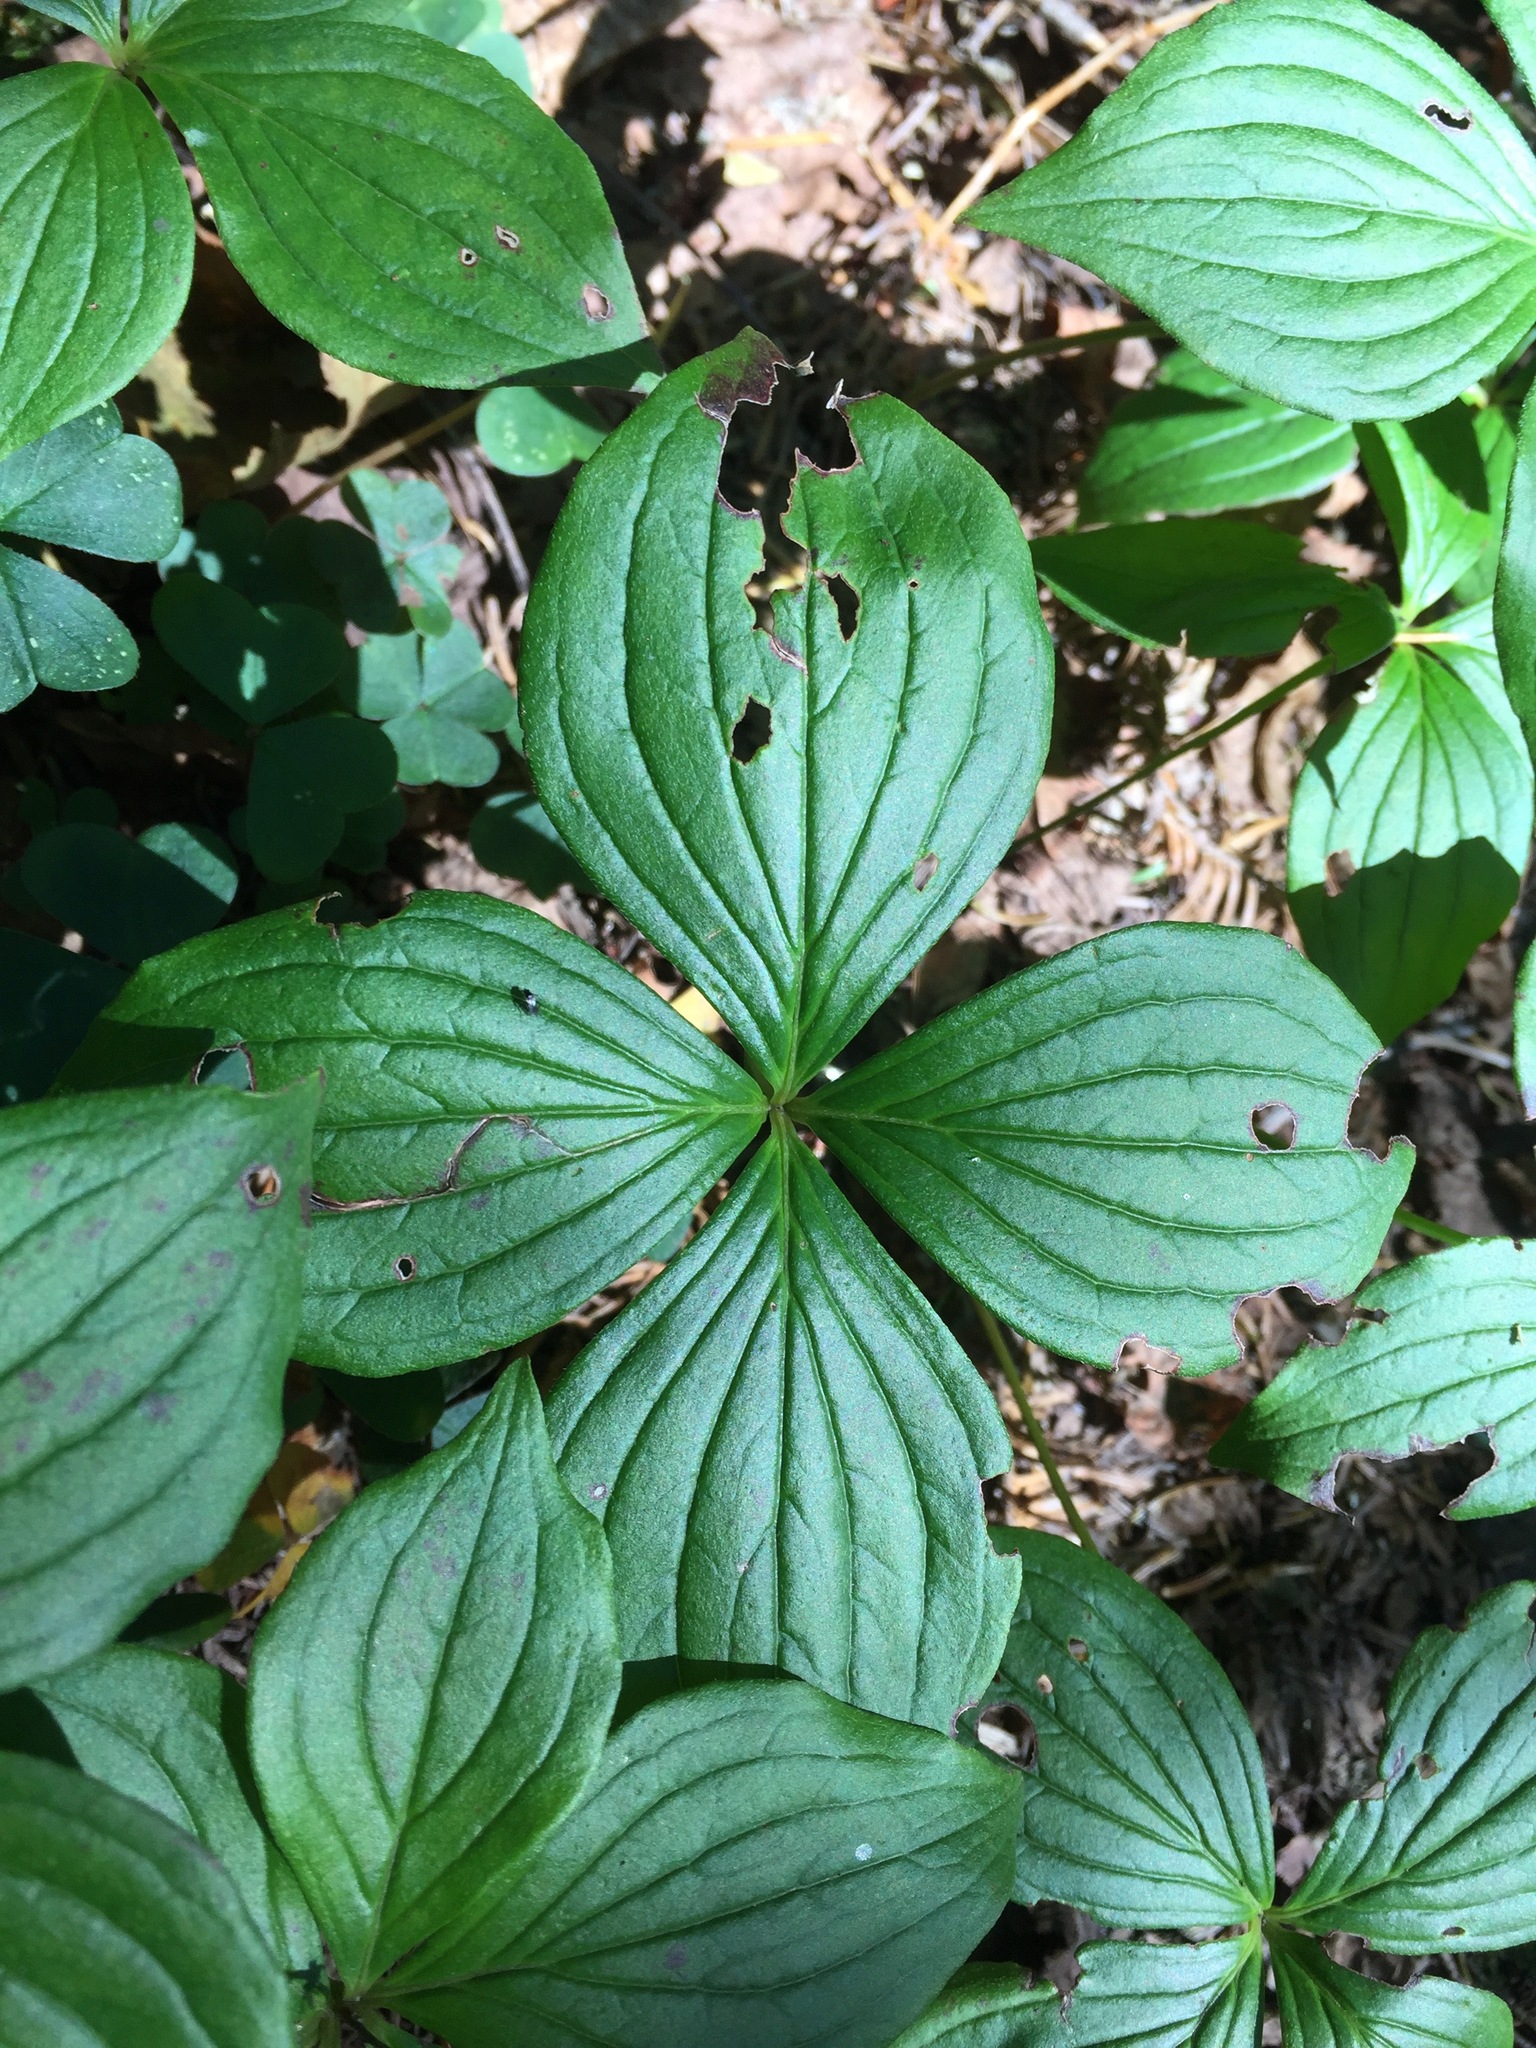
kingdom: Plantae
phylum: Tracheophyta
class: Magnoliopsida
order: Cornales
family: Cornaceae
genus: Cornus
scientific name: Cornus canadensis
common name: Creeping dogwood
